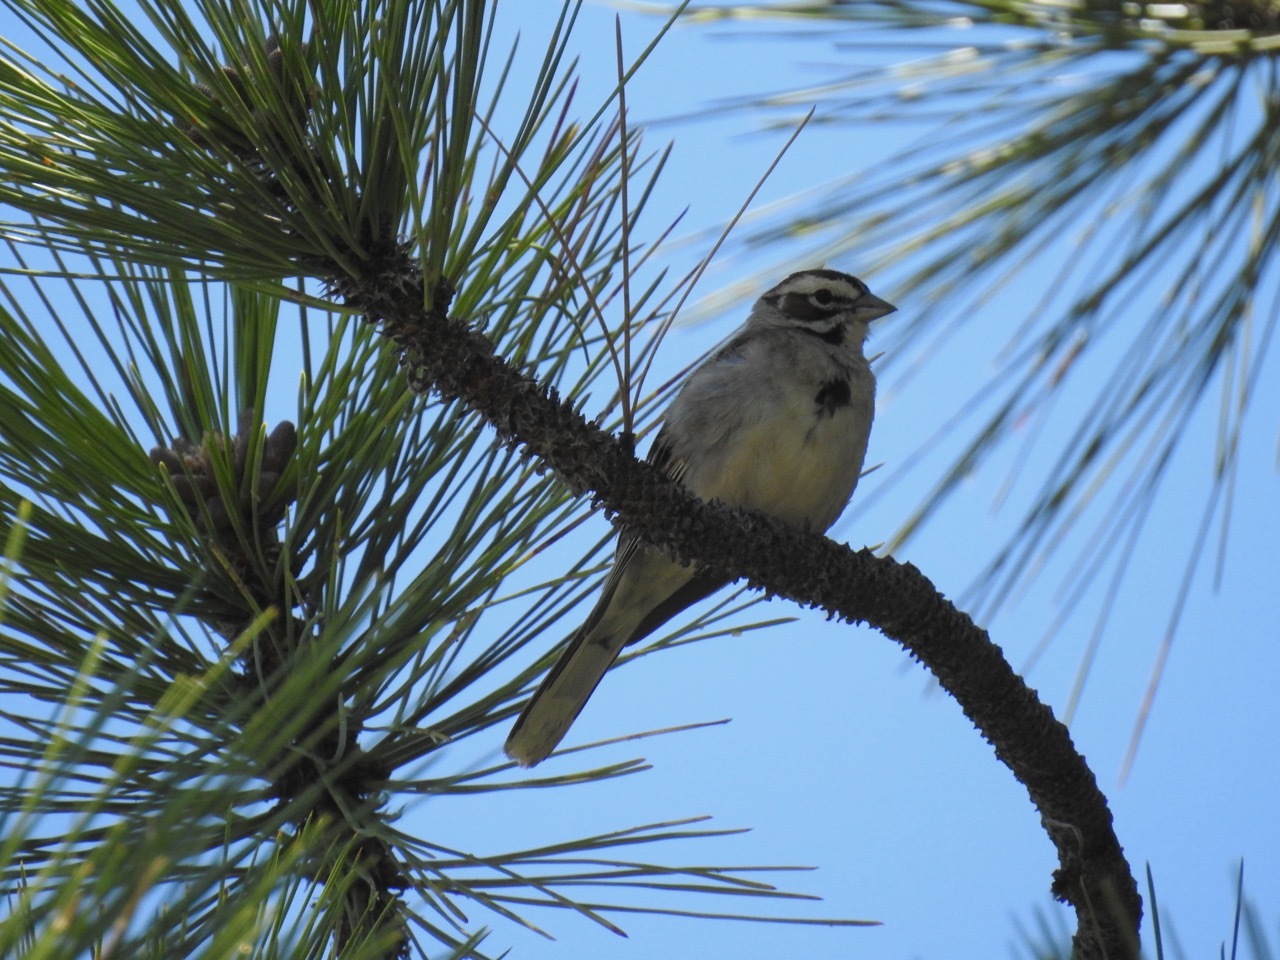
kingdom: Animalia
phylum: Chordata
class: Aves
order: Passeriformes
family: Passerellidae
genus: Chondestes
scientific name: Chondestes grammacus
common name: Lark sparrow
